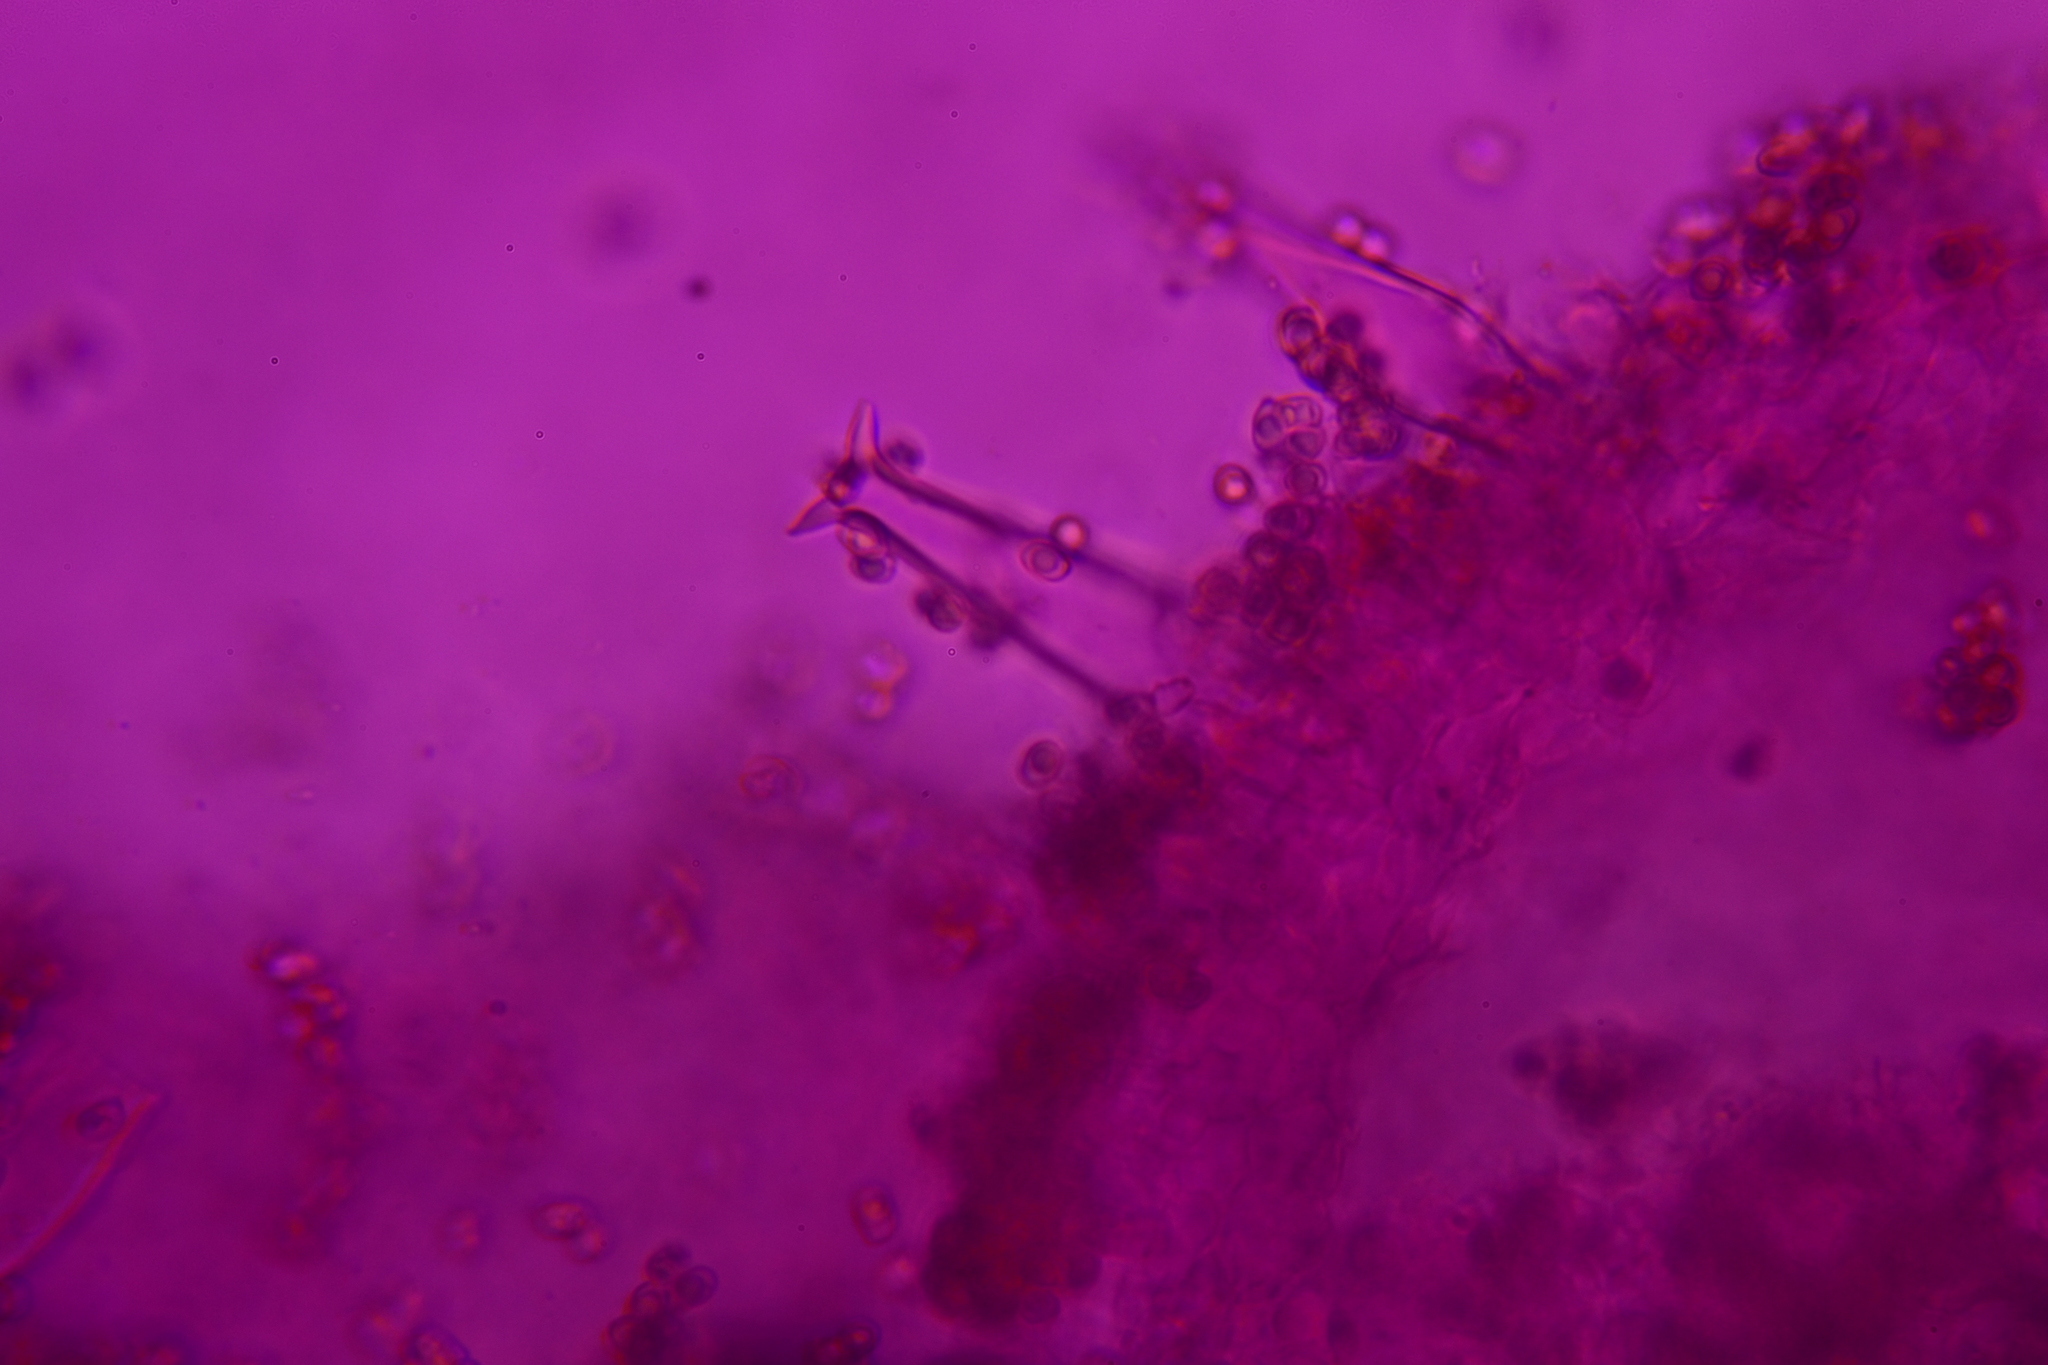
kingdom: Fungi
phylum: Basidiomycota
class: Agaricomycetes
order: Agaricales
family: Pluteaceae
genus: Pluteus
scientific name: Pluteus cervinus
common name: Deer shield
